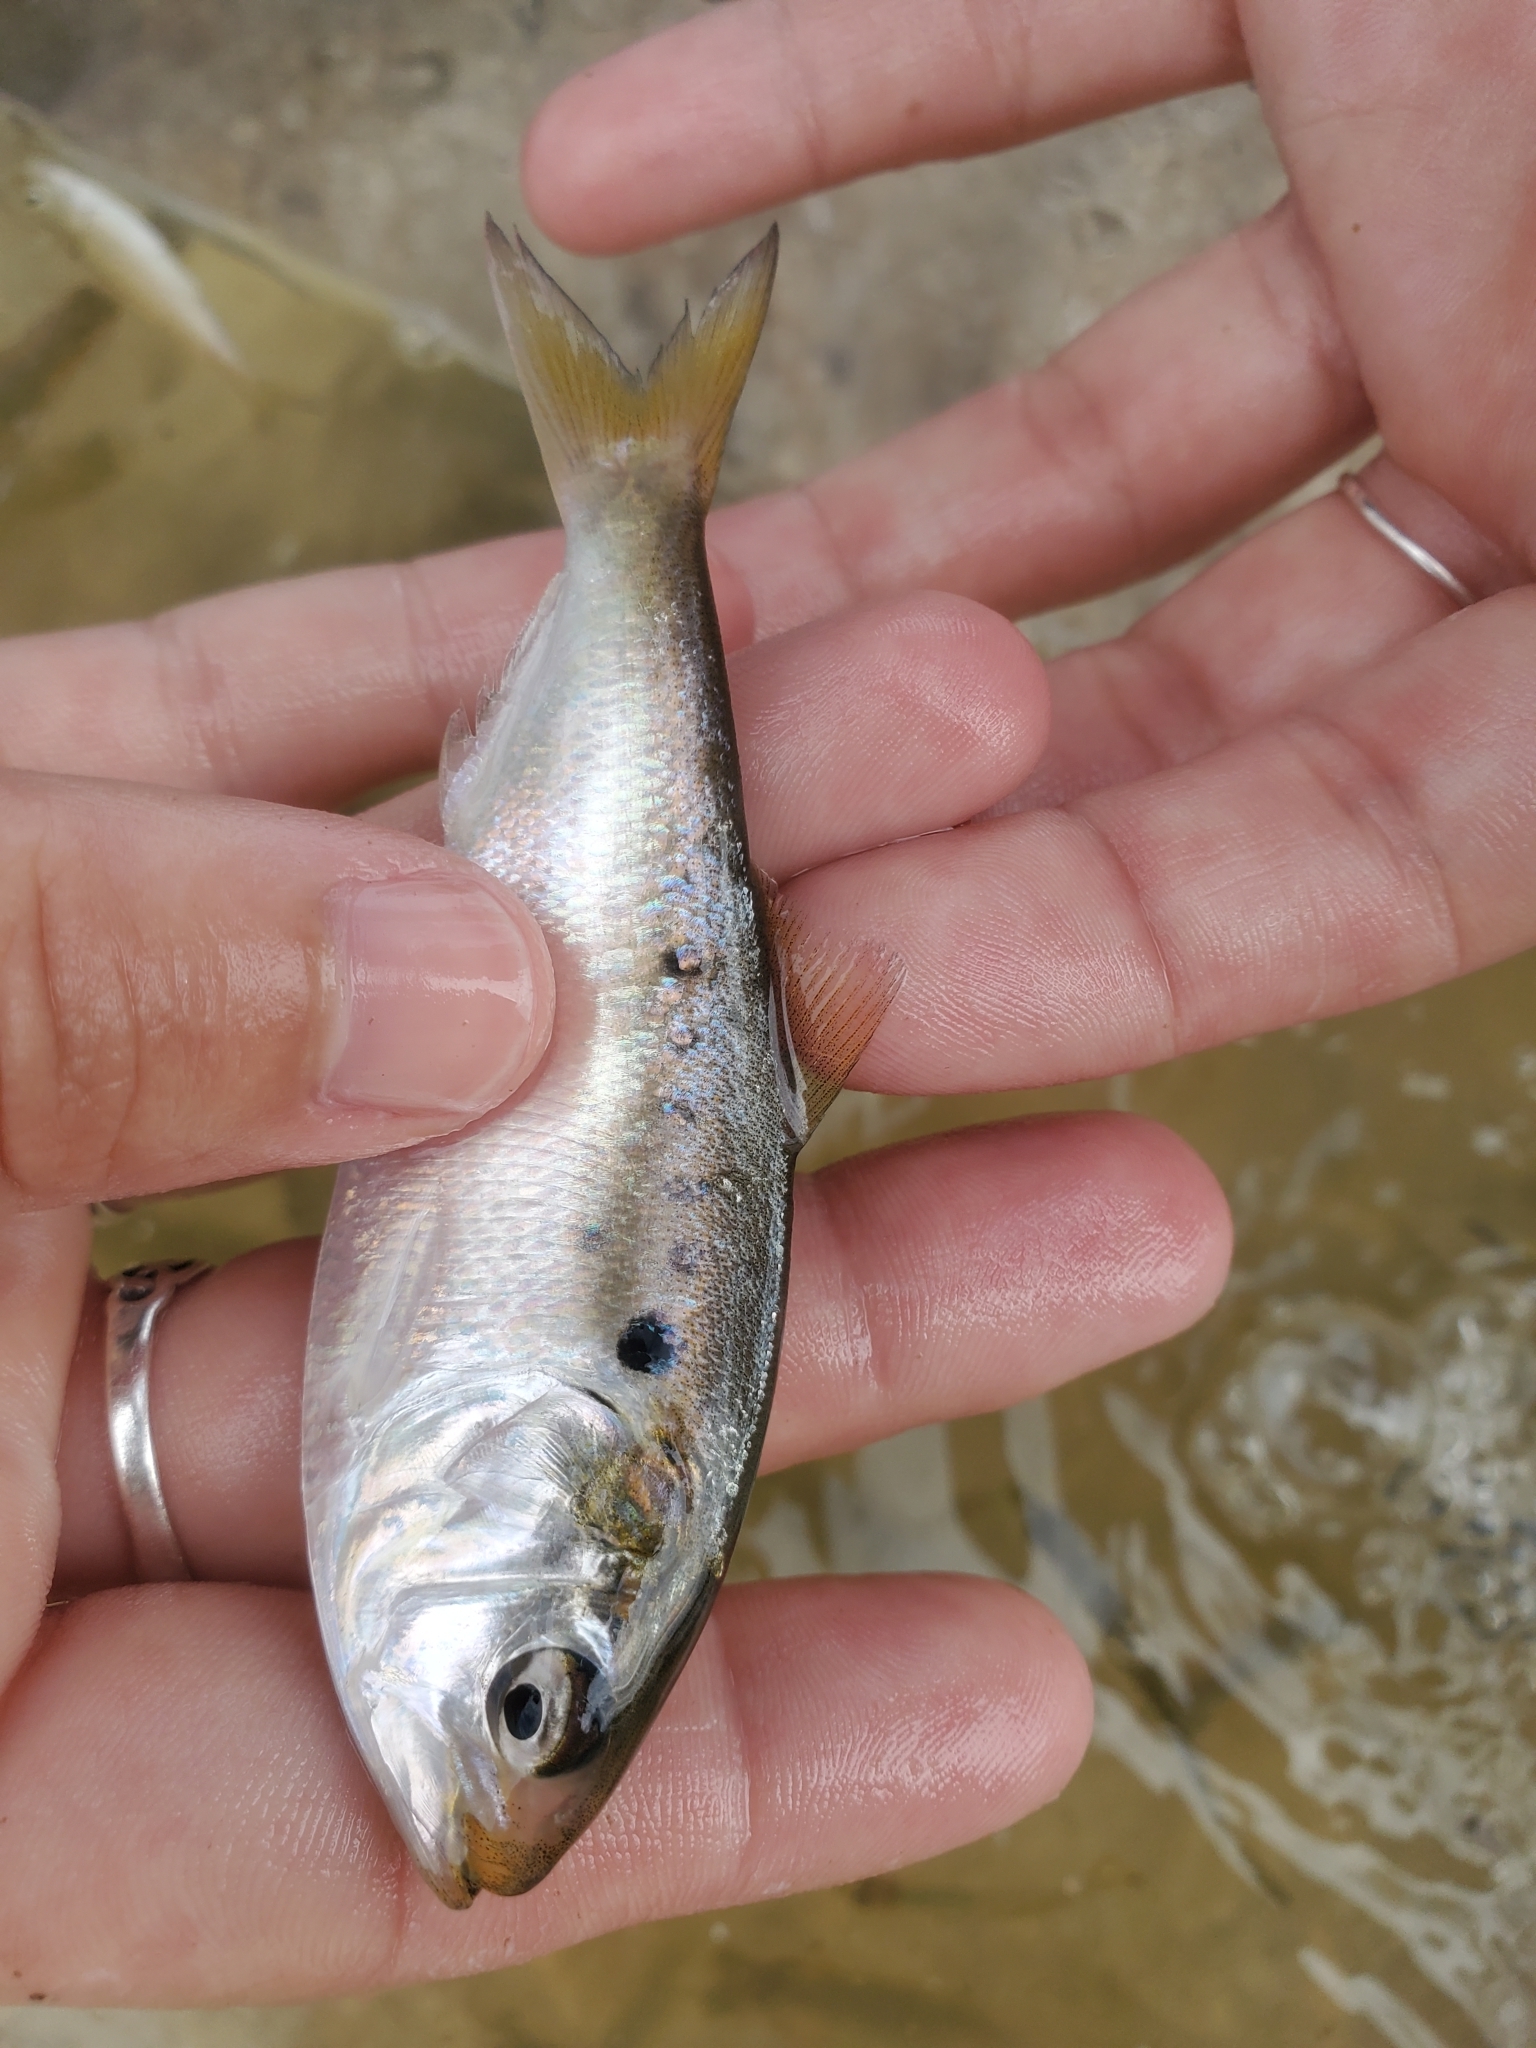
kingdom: Animalia
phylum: Chordata
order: Clupeiformes
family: Clupeidae
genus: Brevoortia
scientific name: Brevoortia tyrannus
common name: Atlantic menhaden
